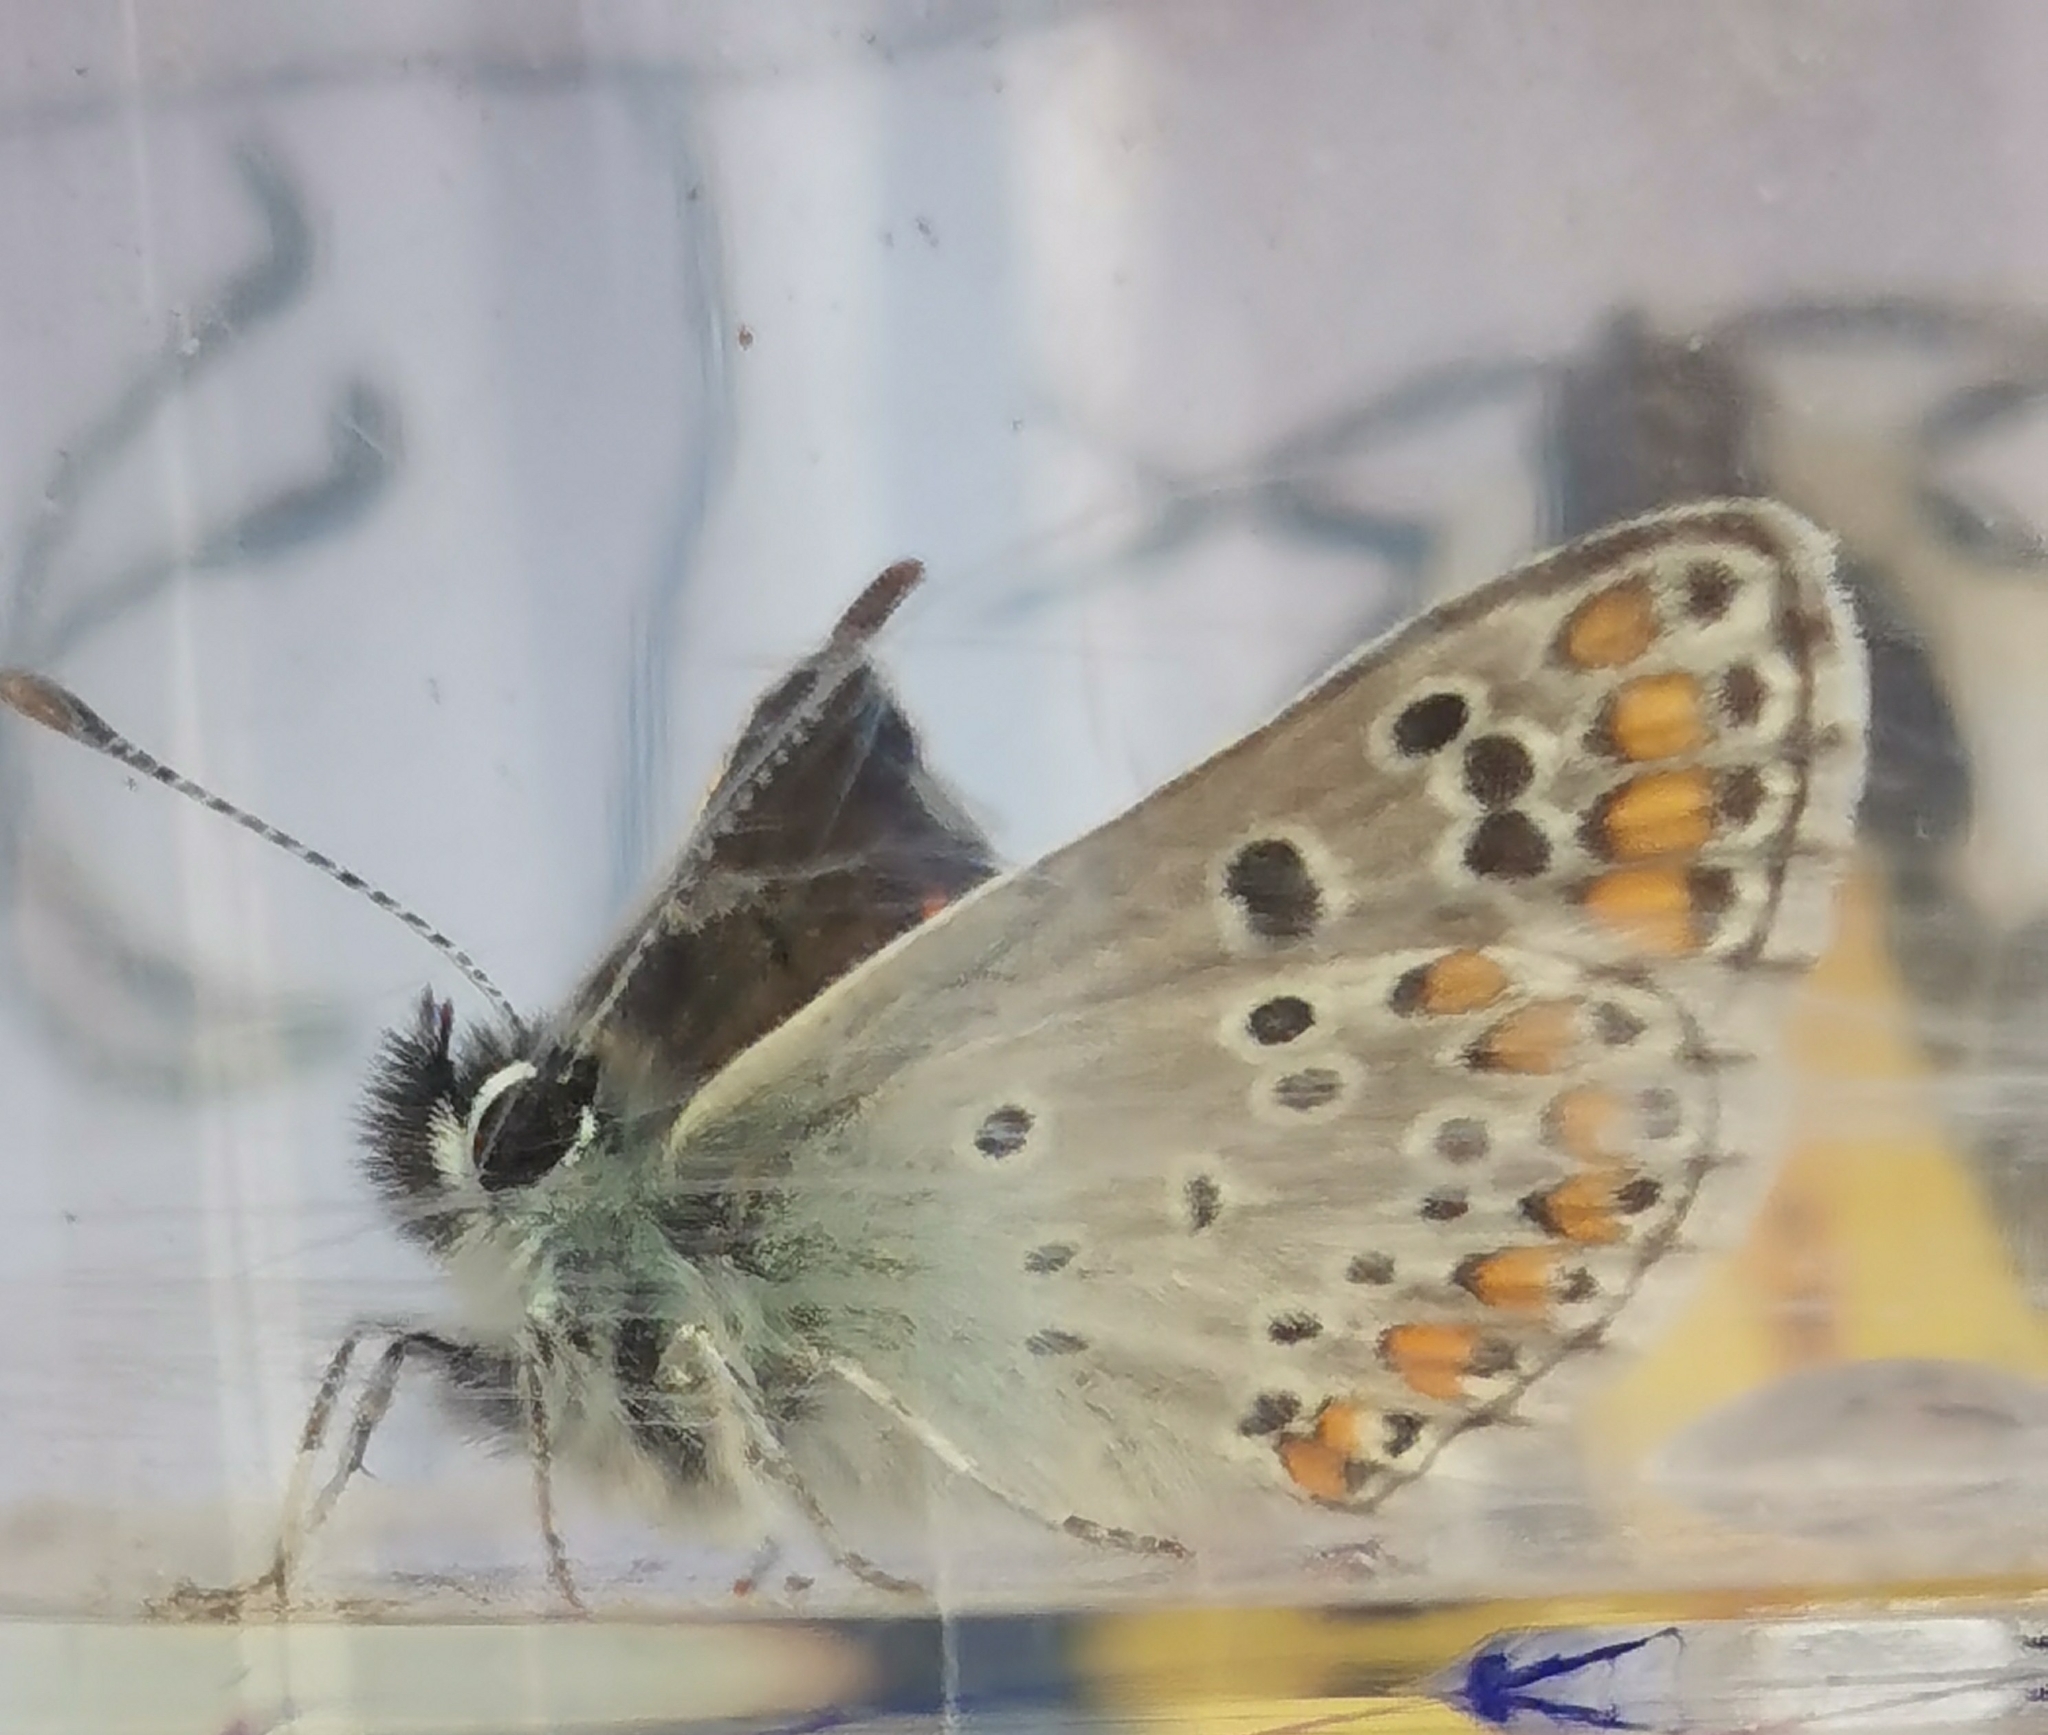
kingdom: Animalia
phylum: Arthropoda
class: Insecta
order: Lepidoptera
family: Lycaenidae
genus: Aricia
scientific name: Aricia agestis
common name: Brown argus
